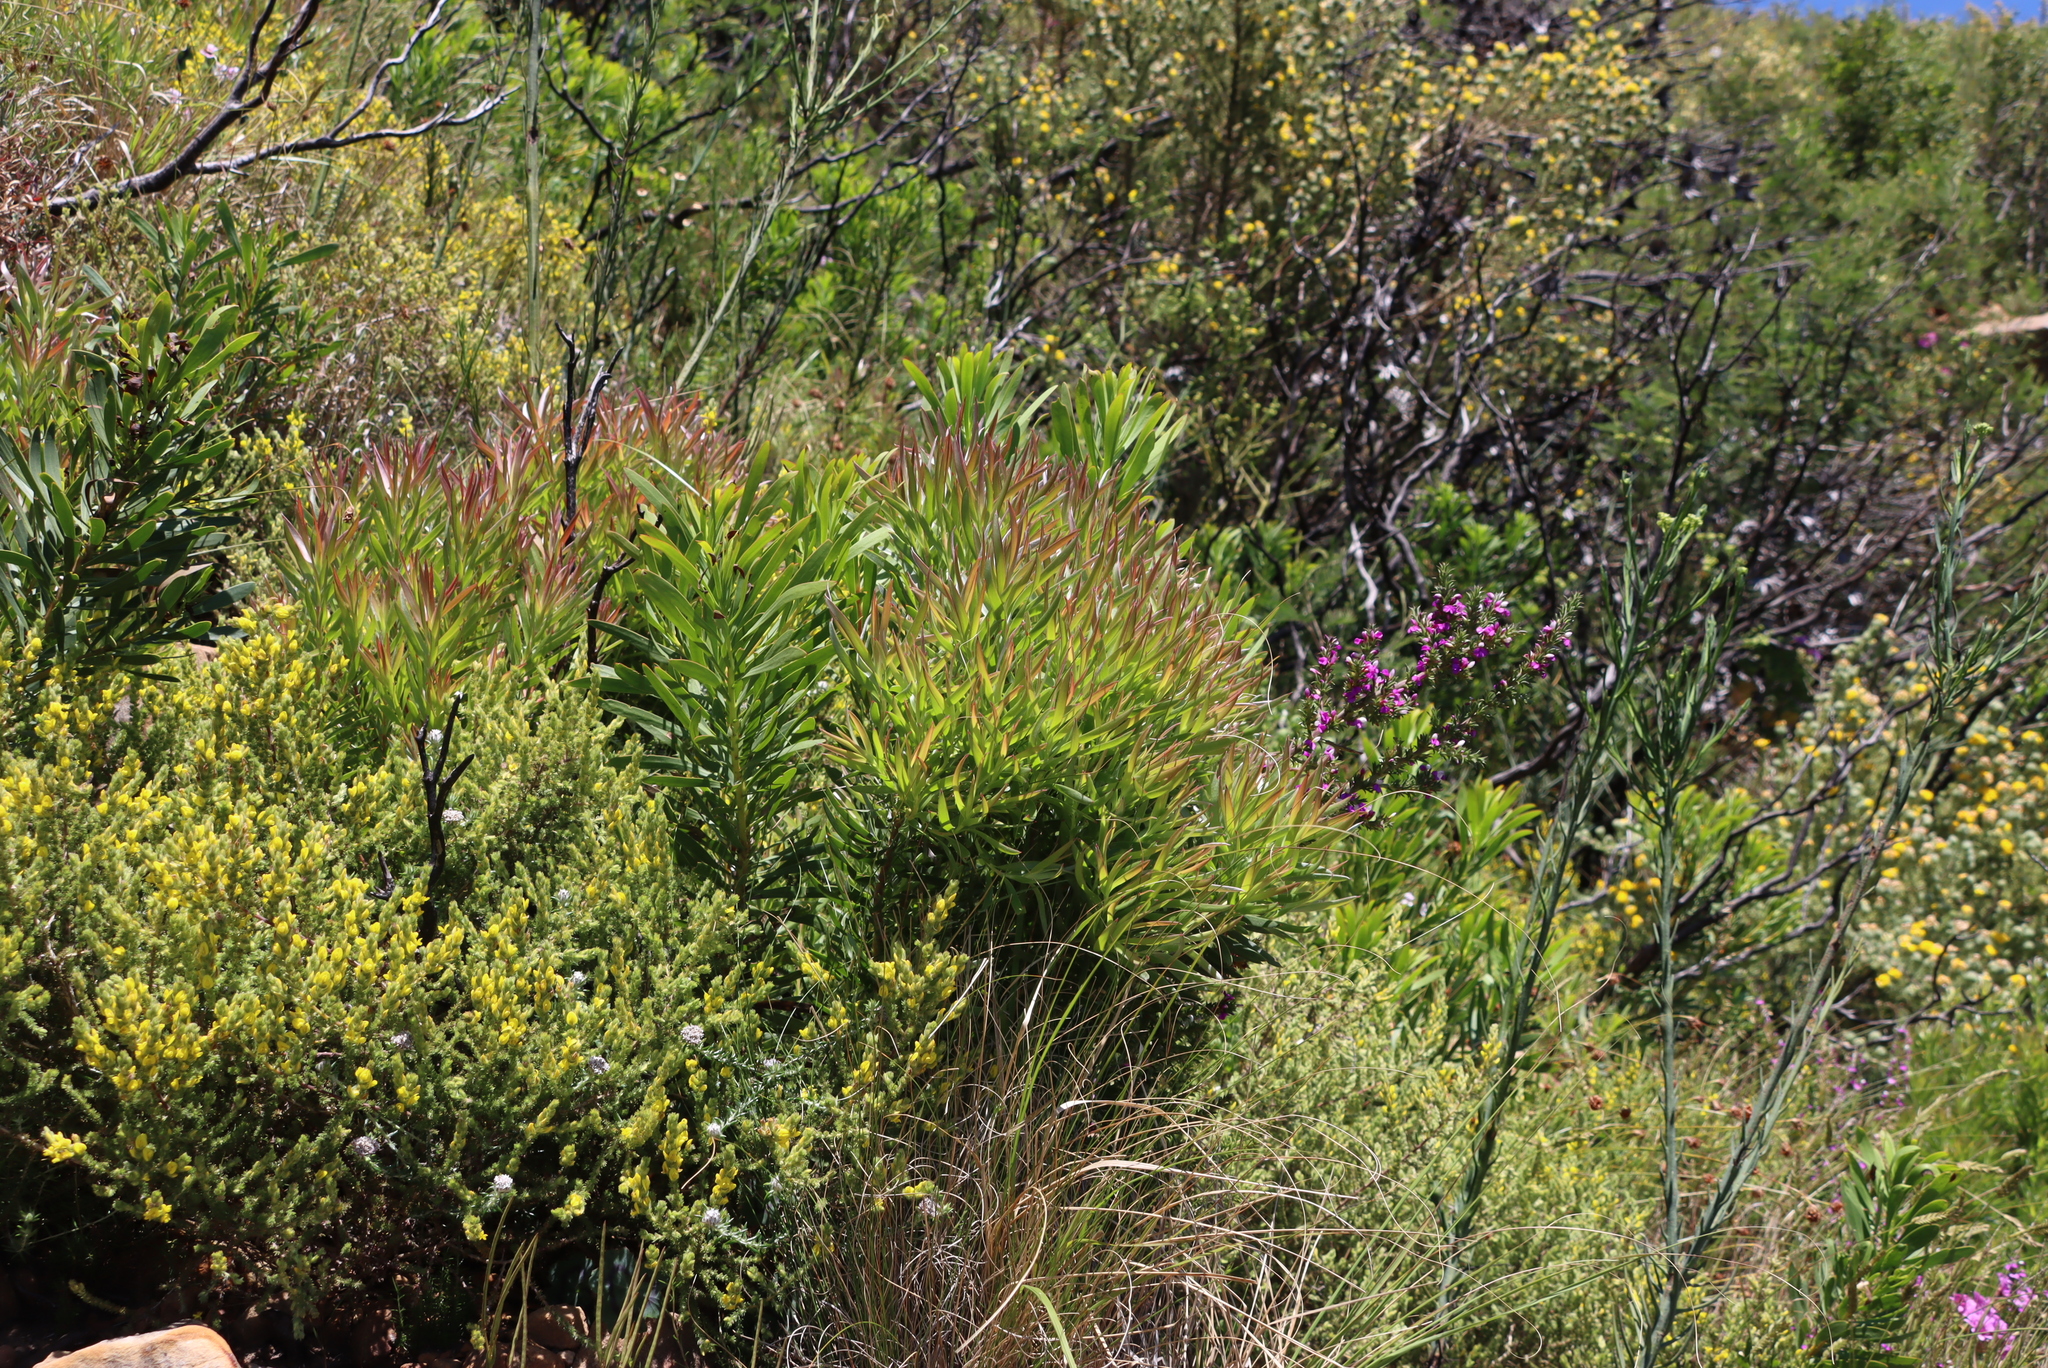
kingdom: Plantae
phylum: Tracheophyta
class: Magnoliopsida
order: Proteales
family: Proteaceae
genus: Leucadendron
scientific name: Leucadendron xanthoconus
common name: Sickle-leaf conebush
